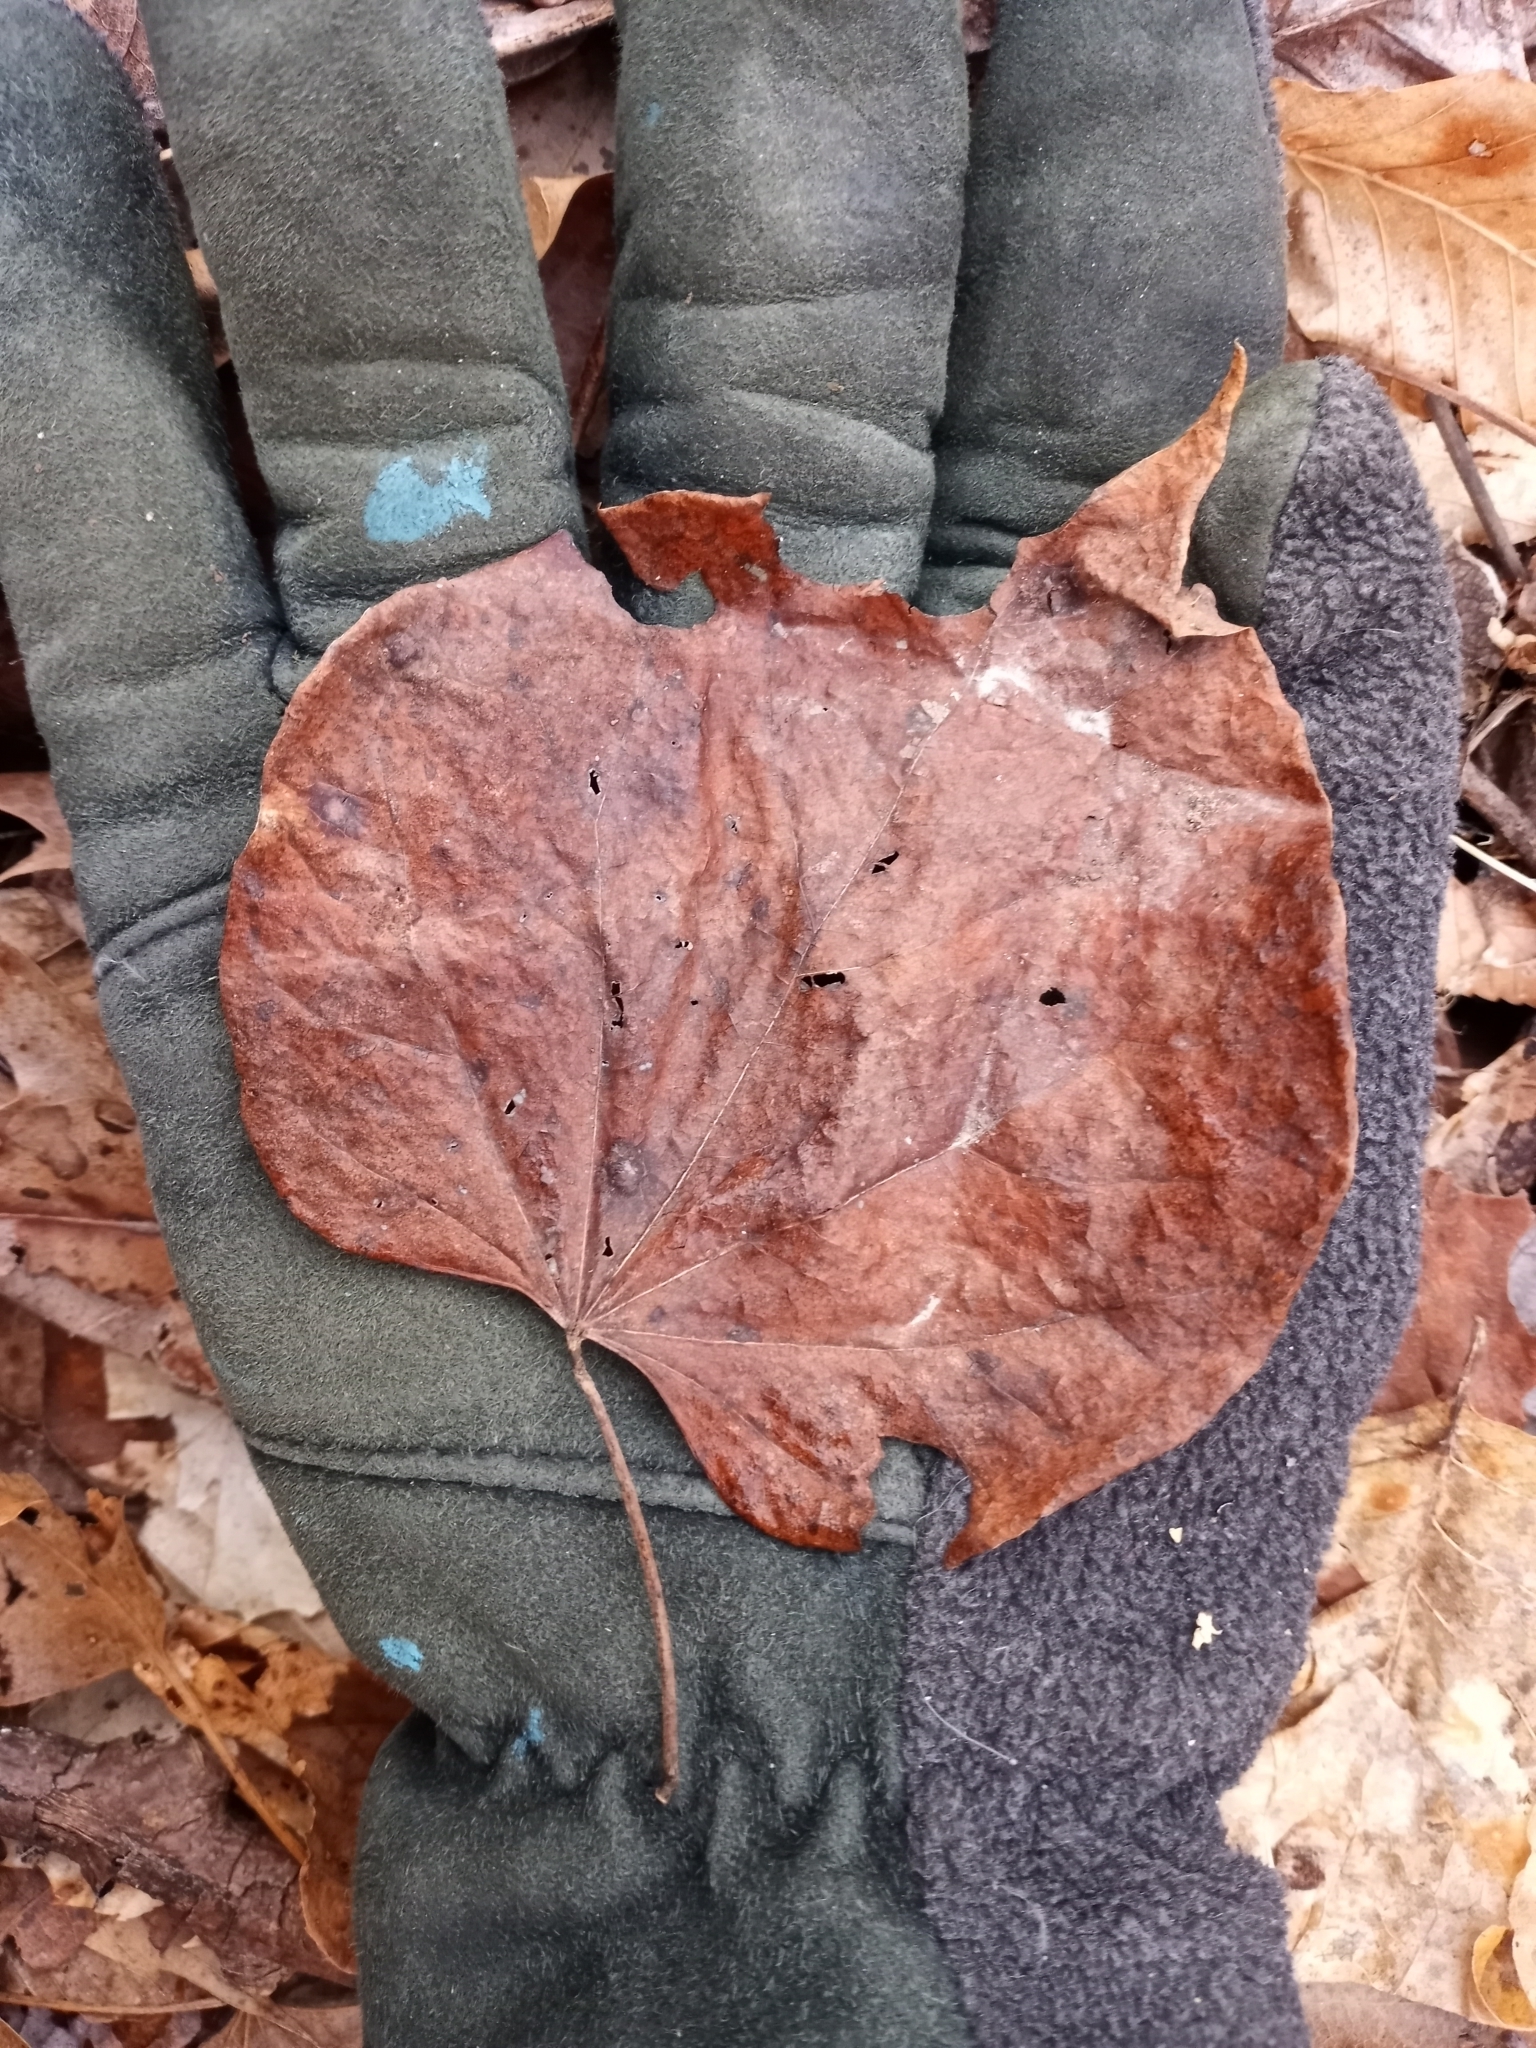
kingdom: Plantae
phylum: Tracheophyta
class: Magnoliopsida
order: Fabales
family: Fabaceae
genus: Cercis
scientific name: Cercis canadensis
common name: Eastern redbud
